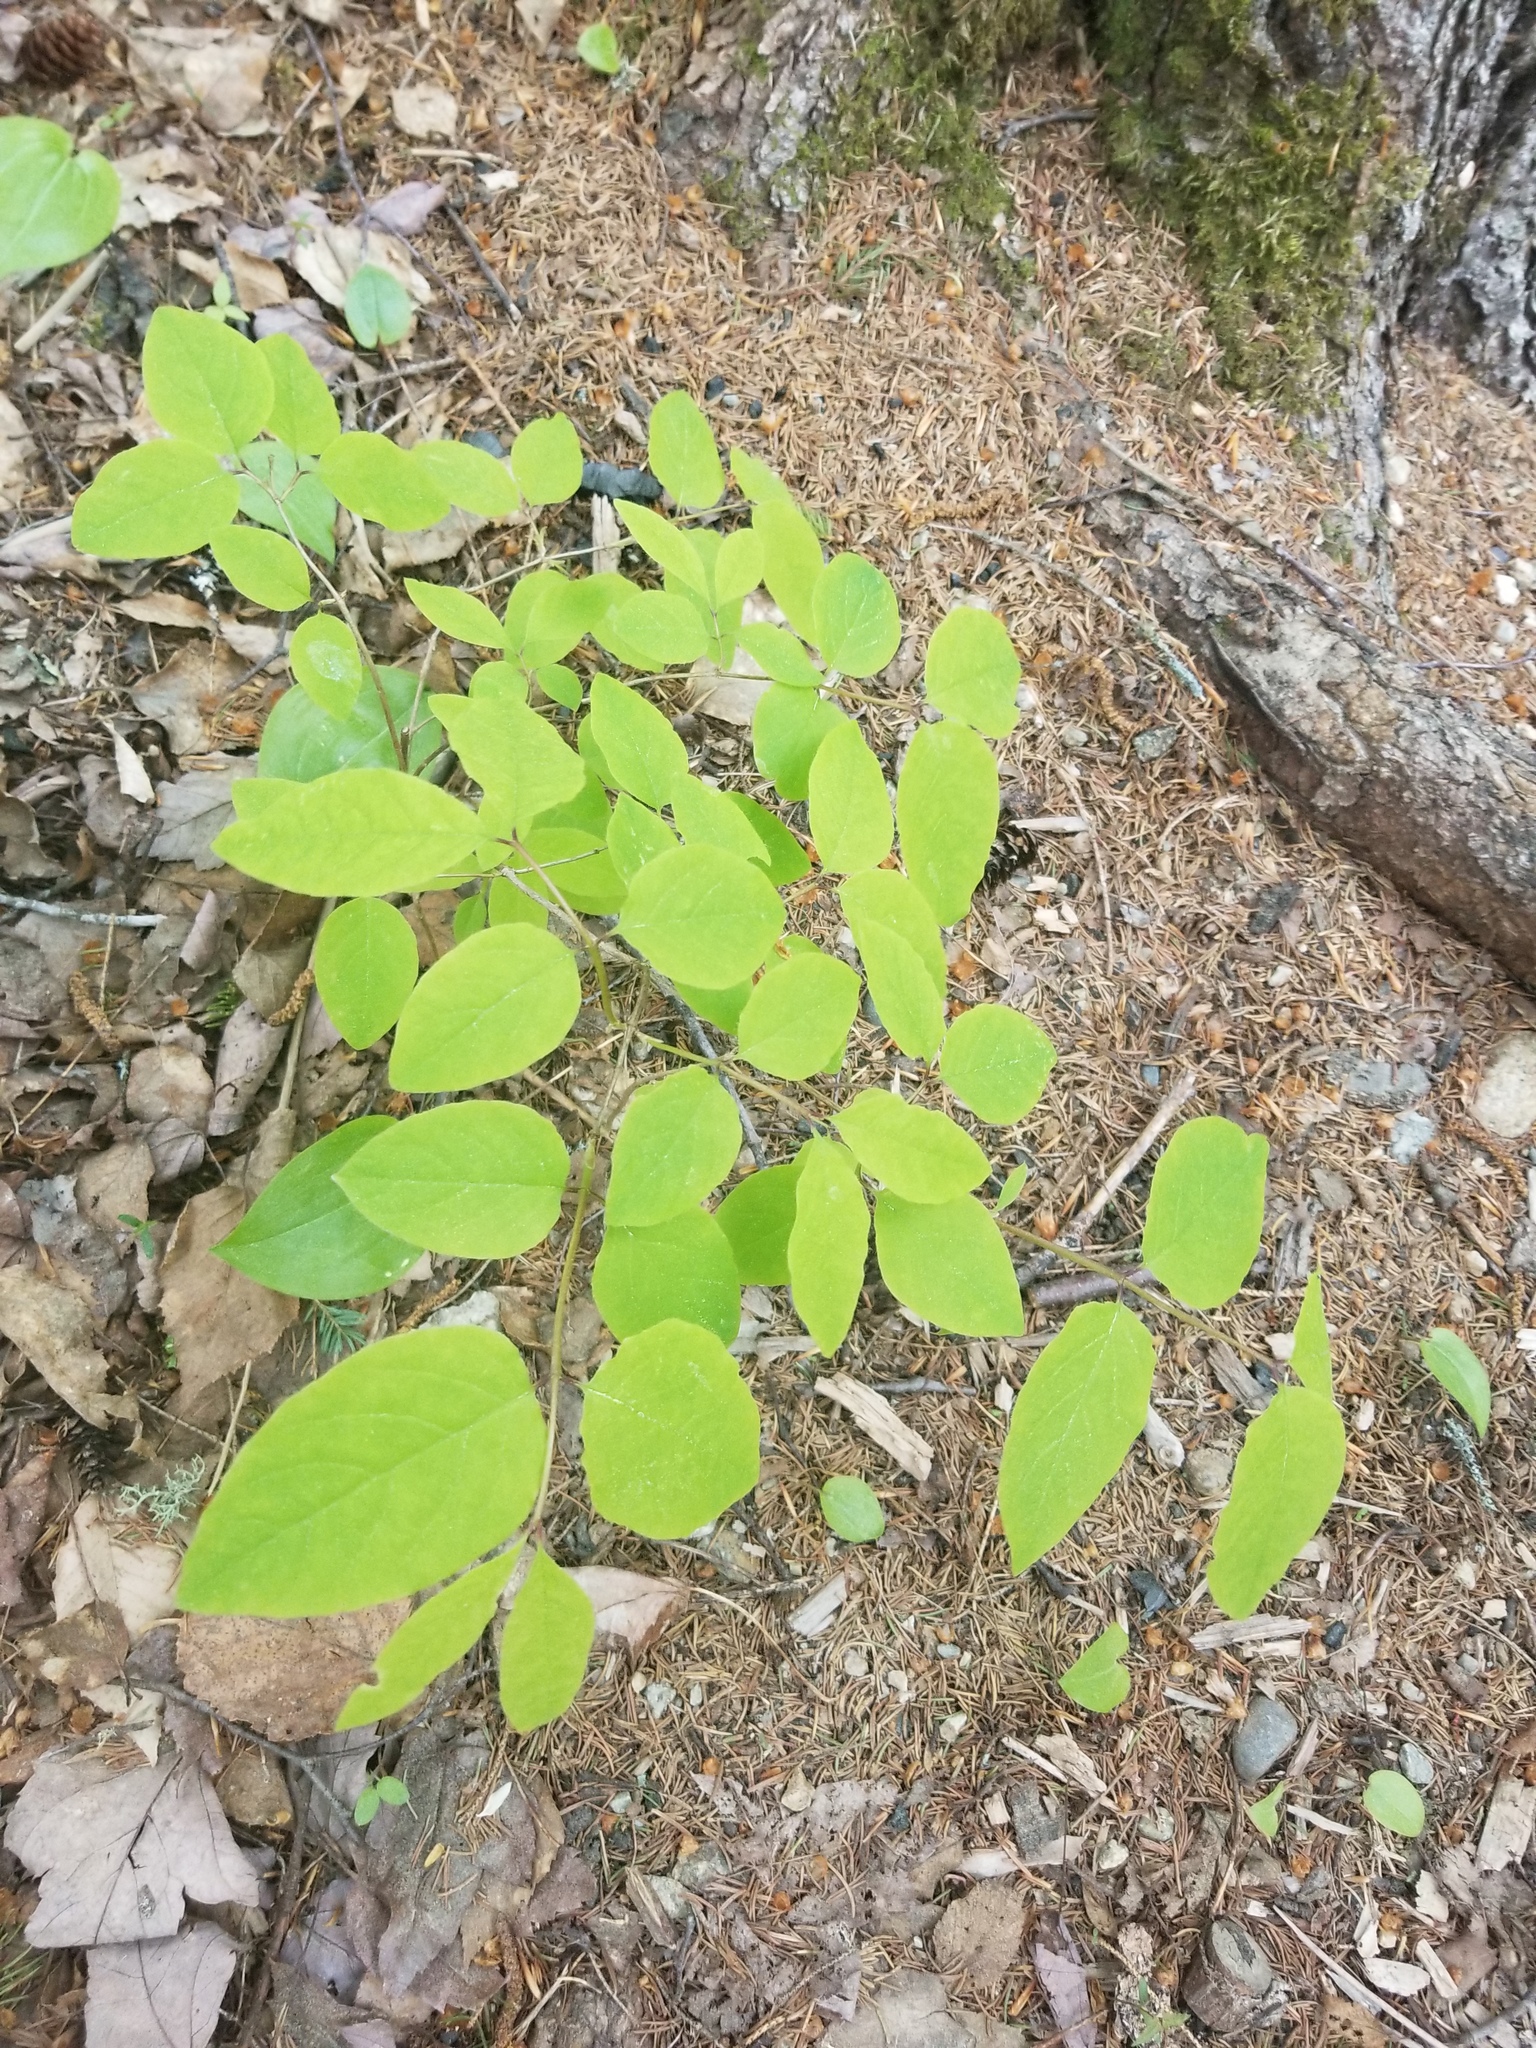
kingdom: Plantae
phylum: Tracheophyta
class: Magnoliopsida
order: Dipsacales
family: Caprifoliaceae
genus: Lonicera
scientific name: Lonicera canadensis
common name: American fly-honeysuckle
